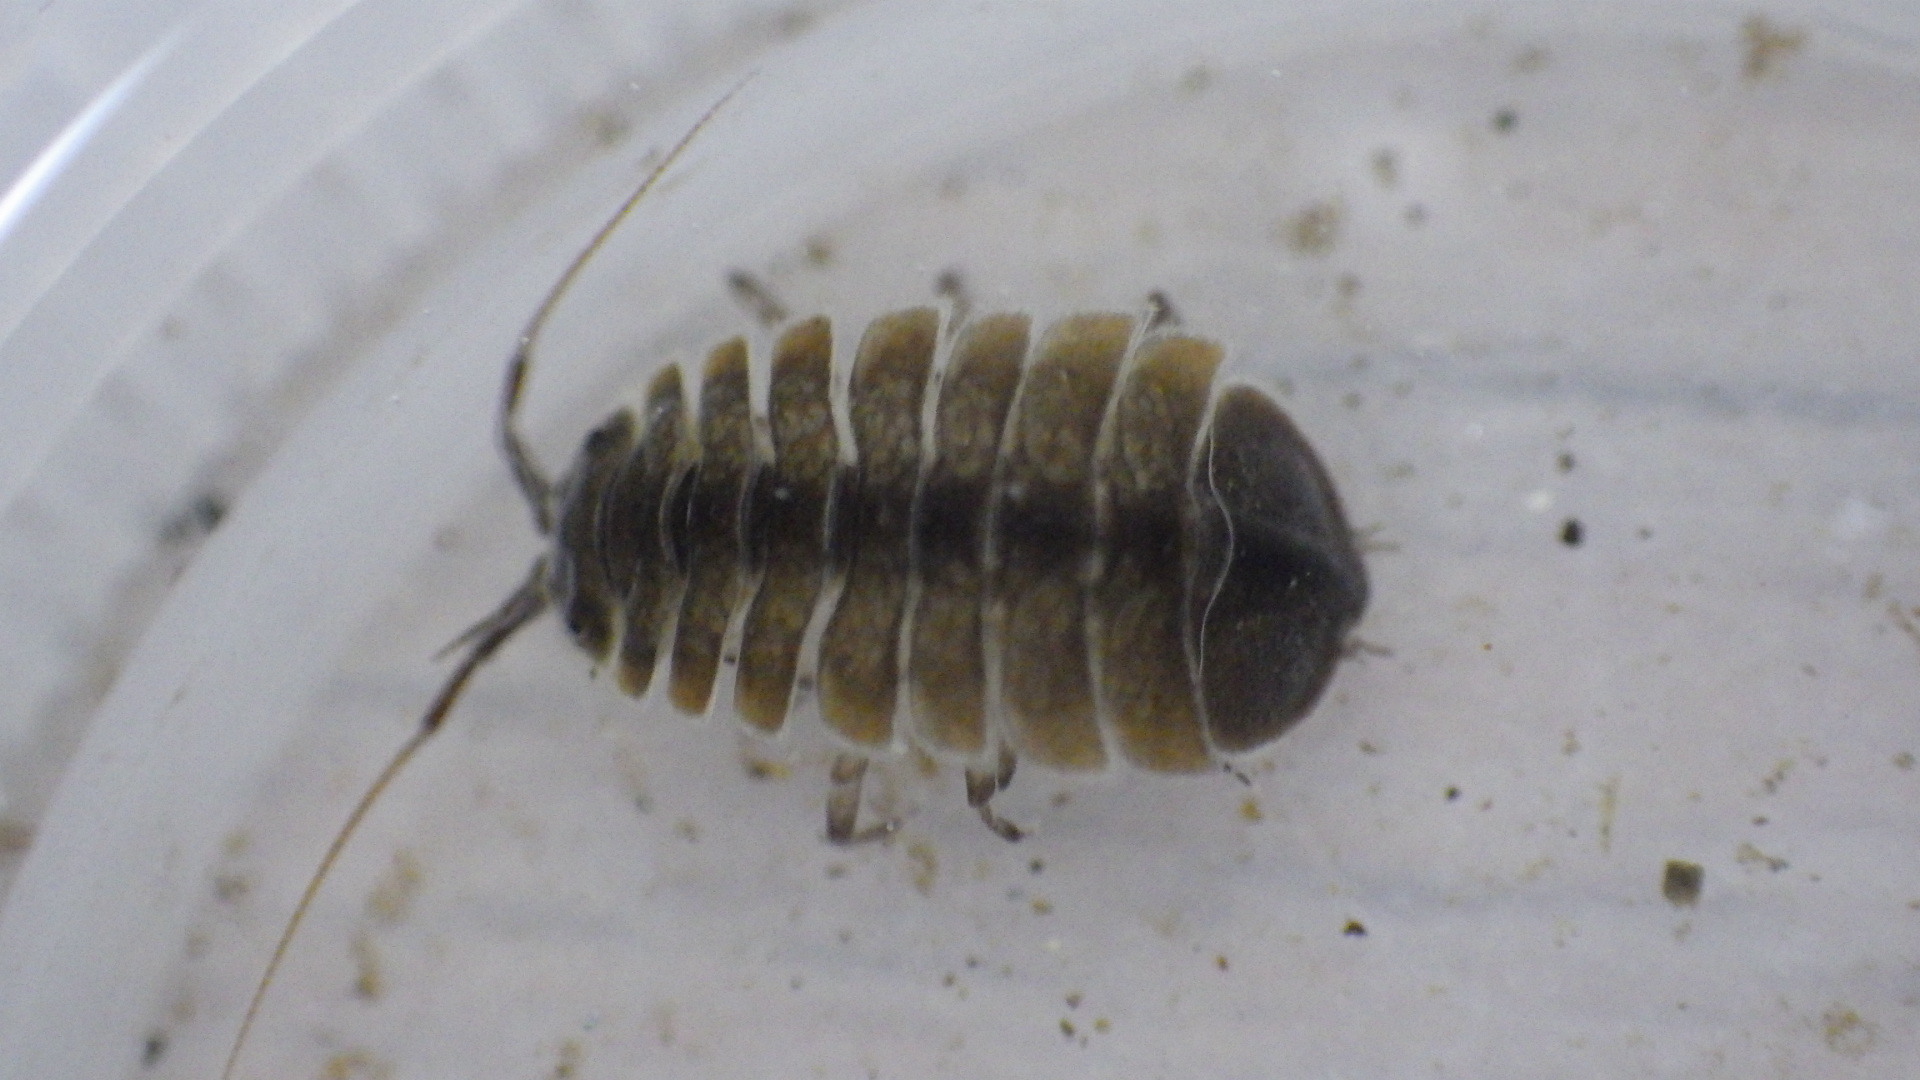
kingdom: Animalia
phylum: Arthropoda
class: Malacostraca
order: Isopoda
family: Asellidae
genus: Lirceus
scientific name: Lirceus brachyurus
